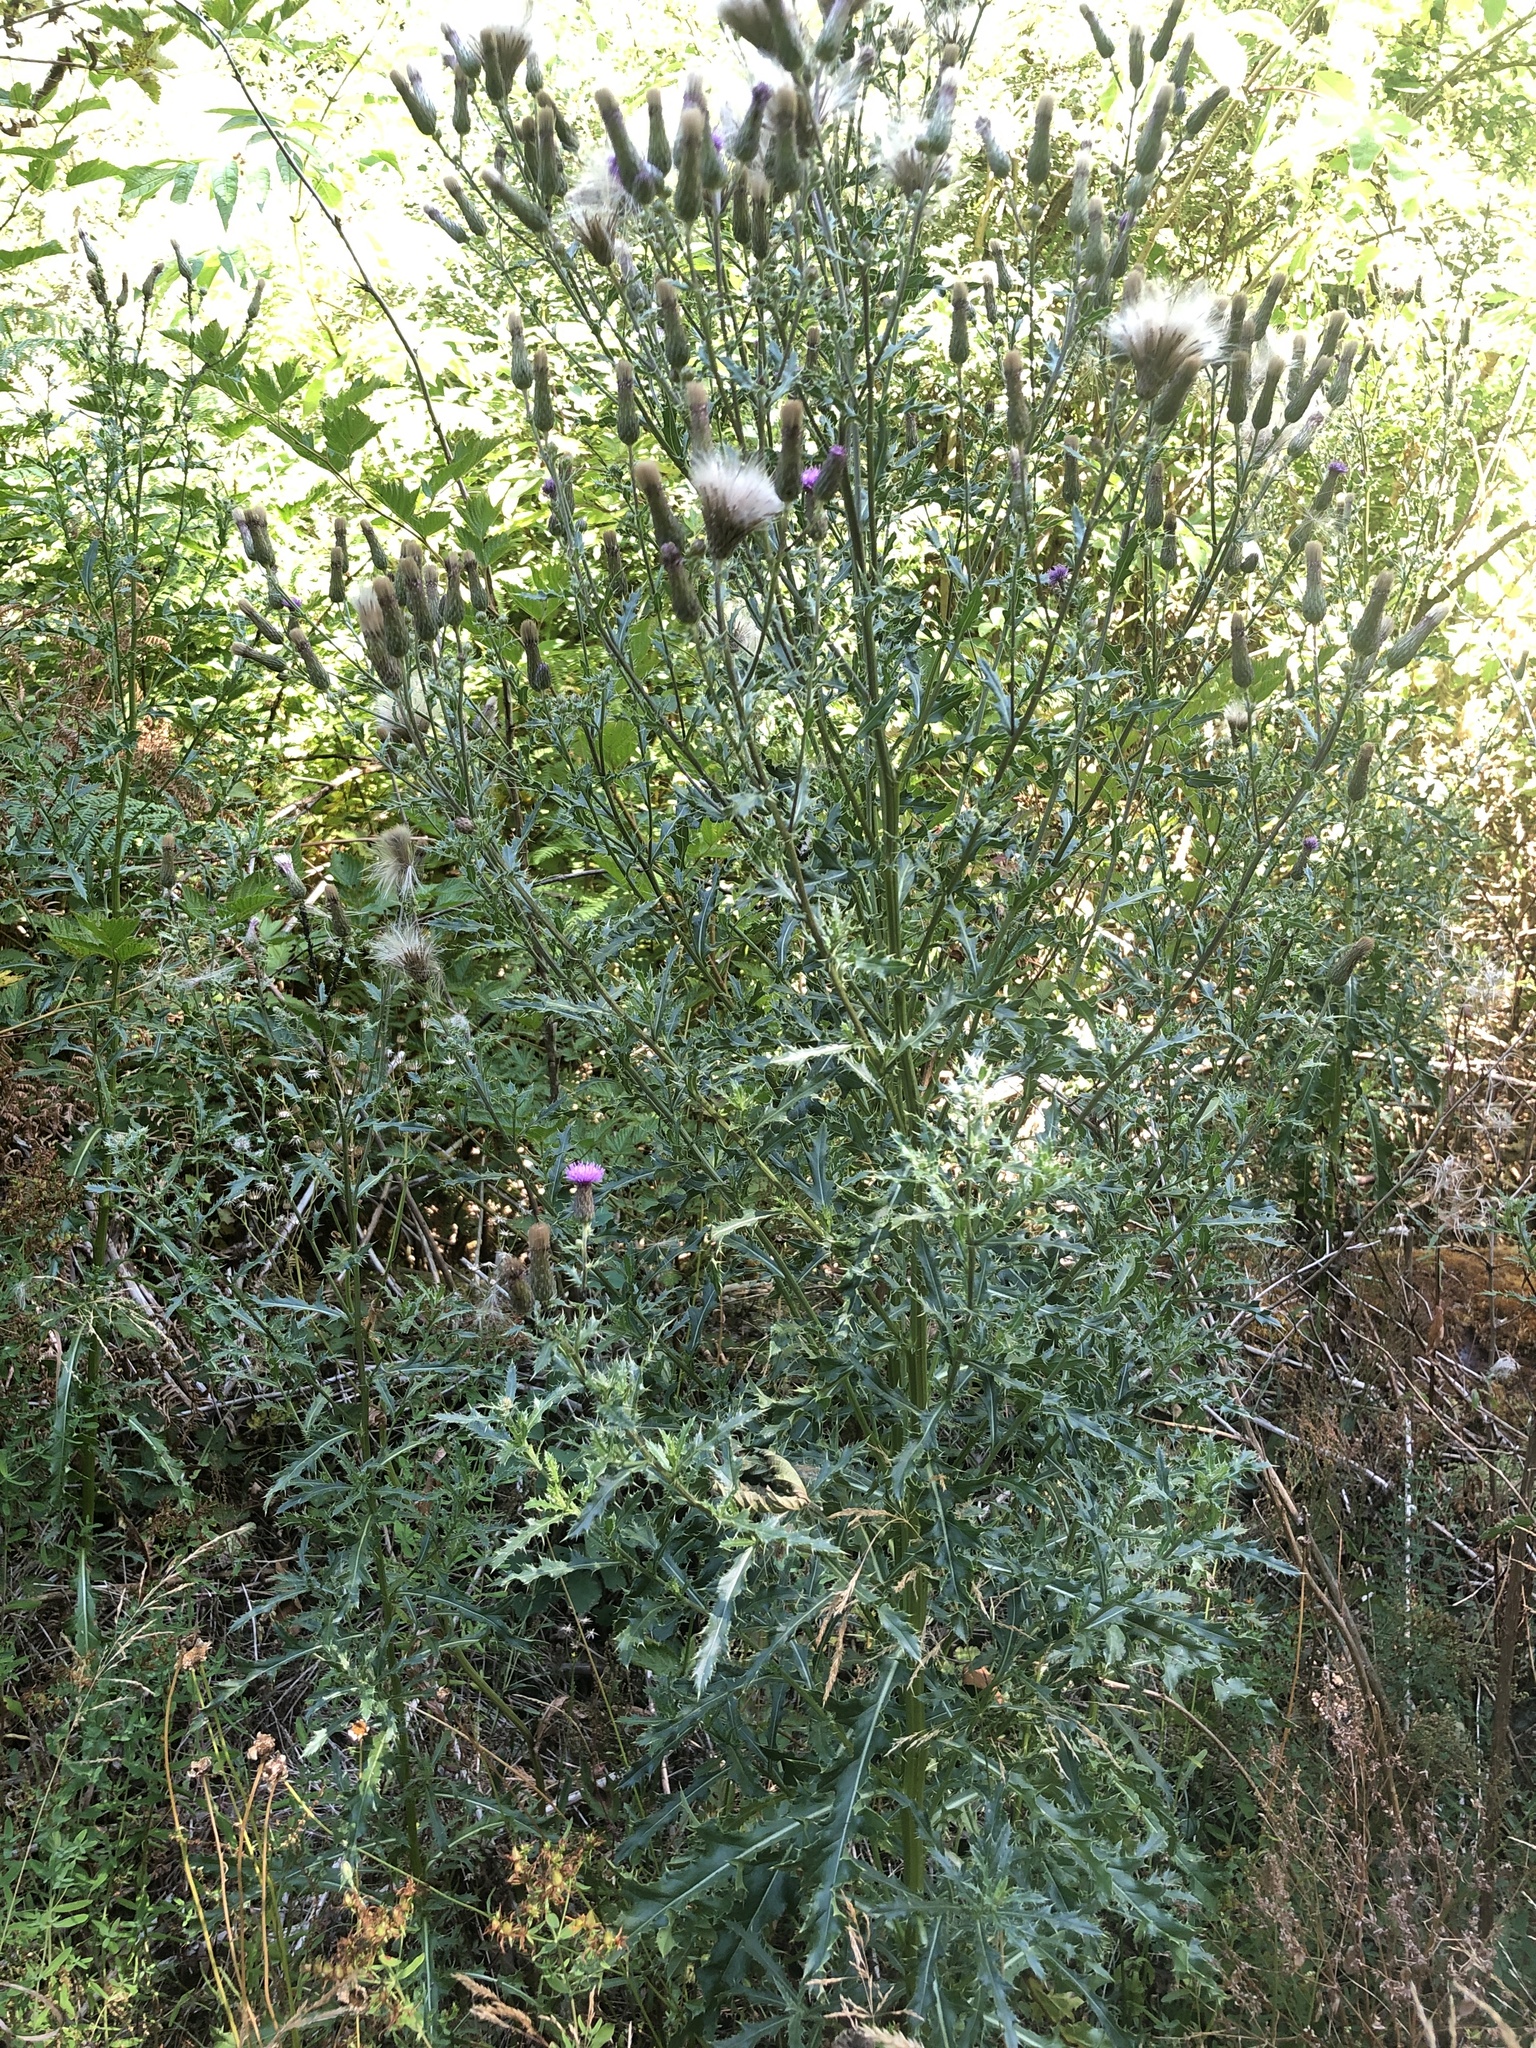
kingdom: Plantae
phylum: Tracheophyta
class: Magnoliopsida
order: Asterales
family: Asteraceae
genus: Cirsium
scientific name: Cirsium arvense
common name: Creeping thistle
